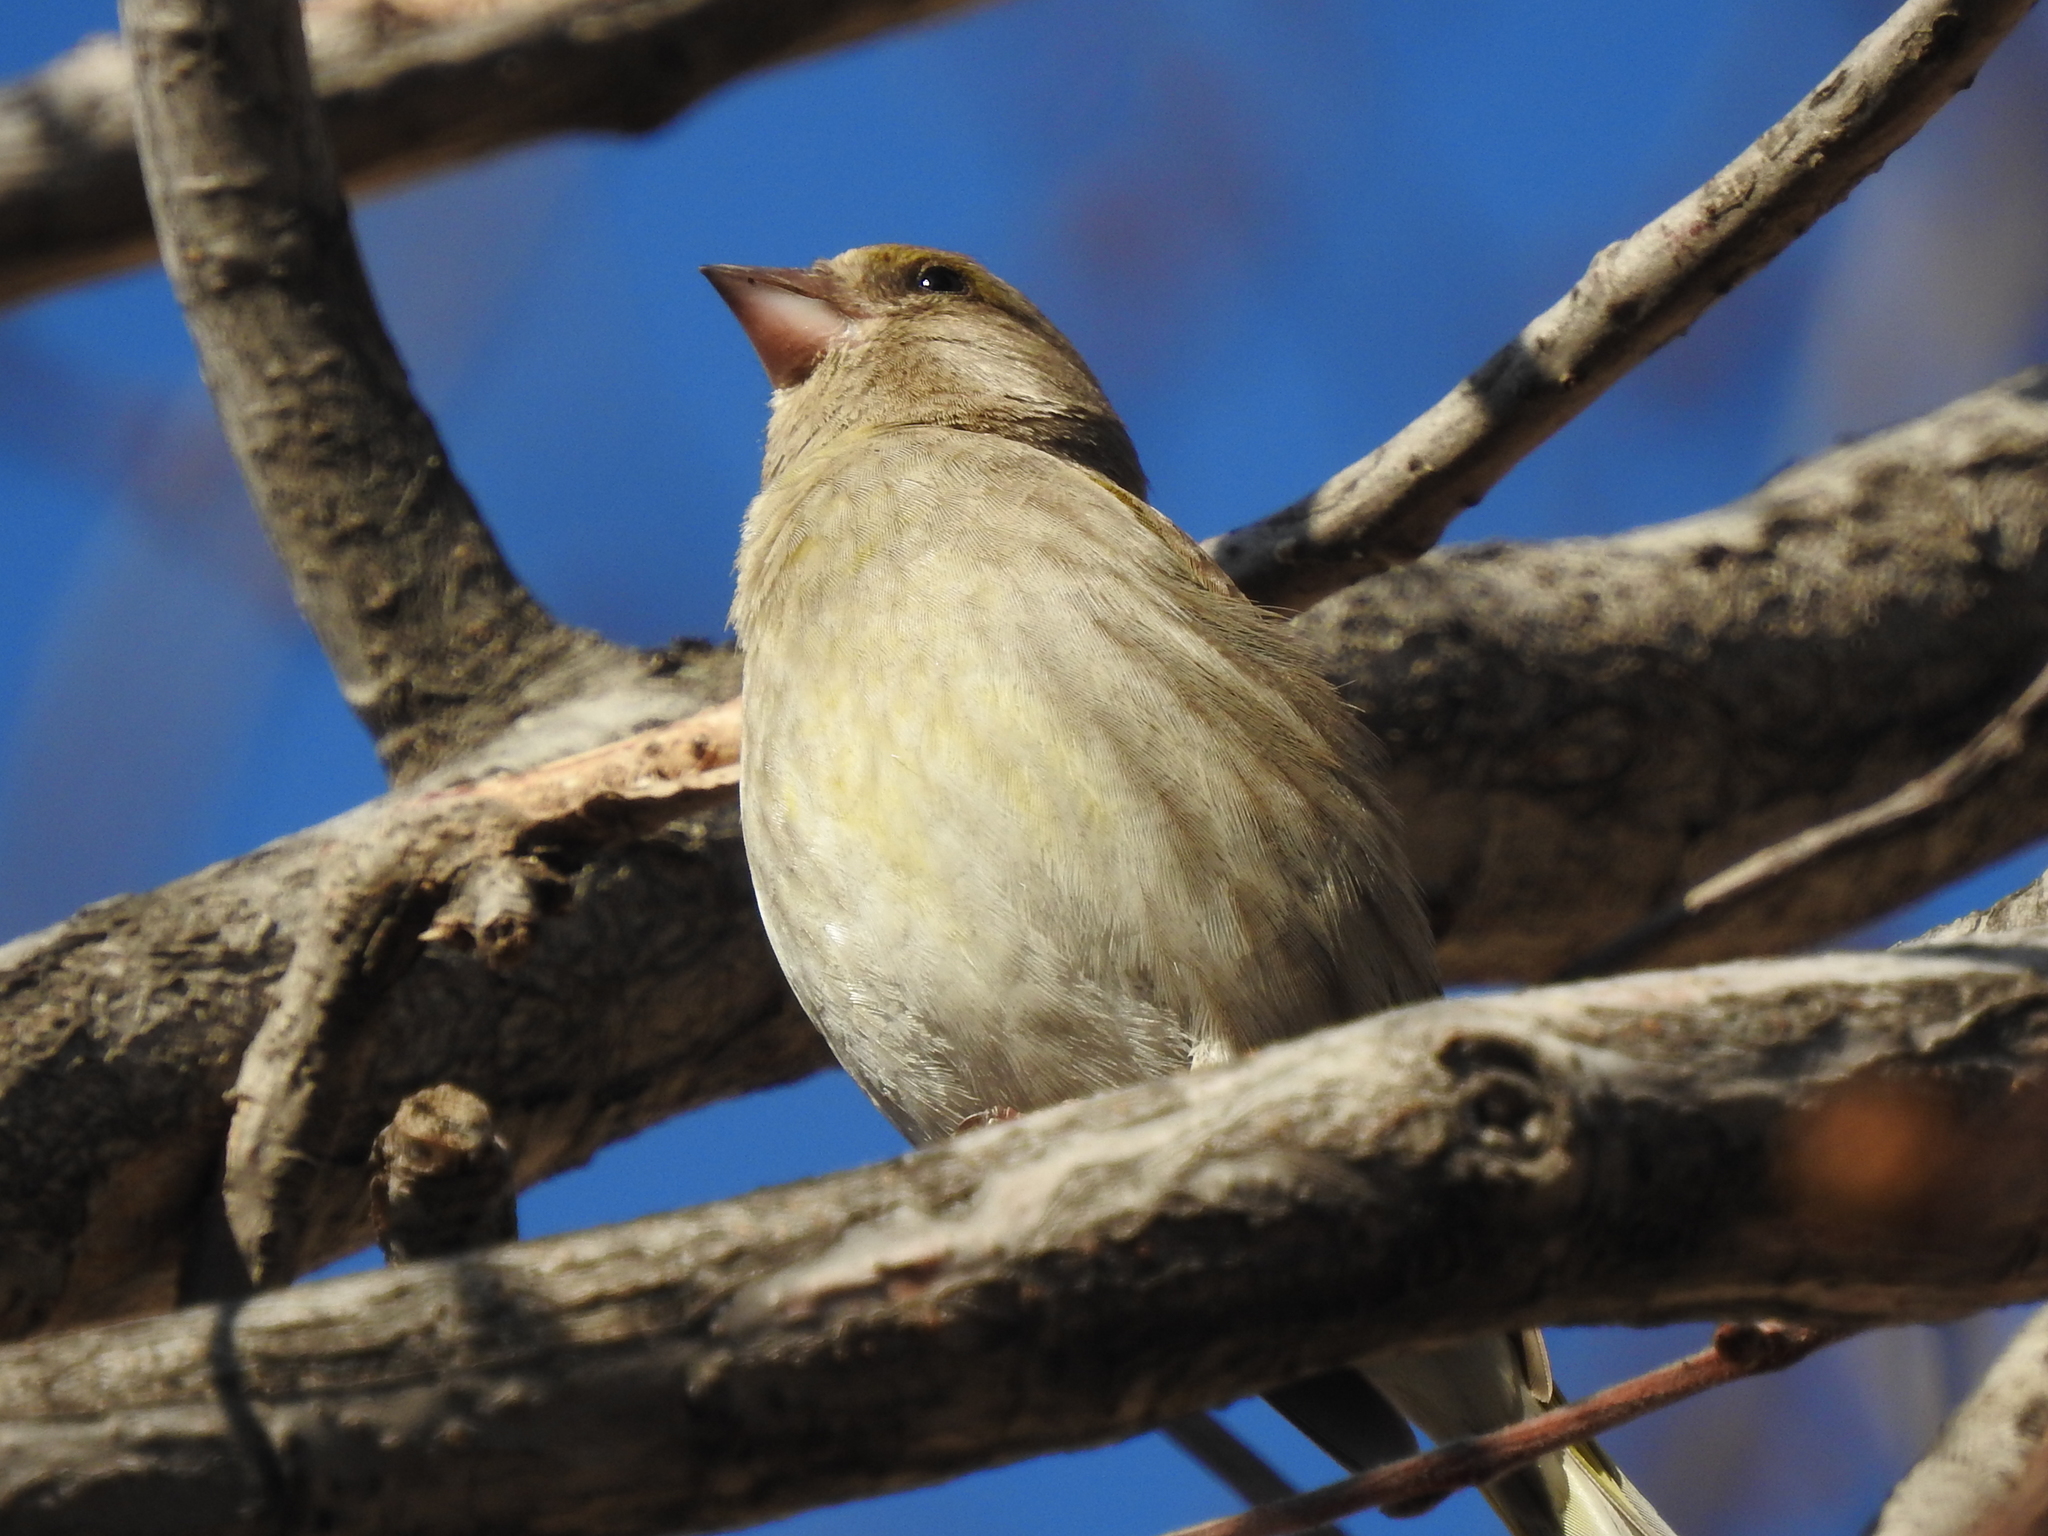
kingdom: Plantae
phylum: Tracheophyta
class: Liliopsida
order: Poales
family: Poaceae
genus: Chloris
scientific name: Chloris chloris
